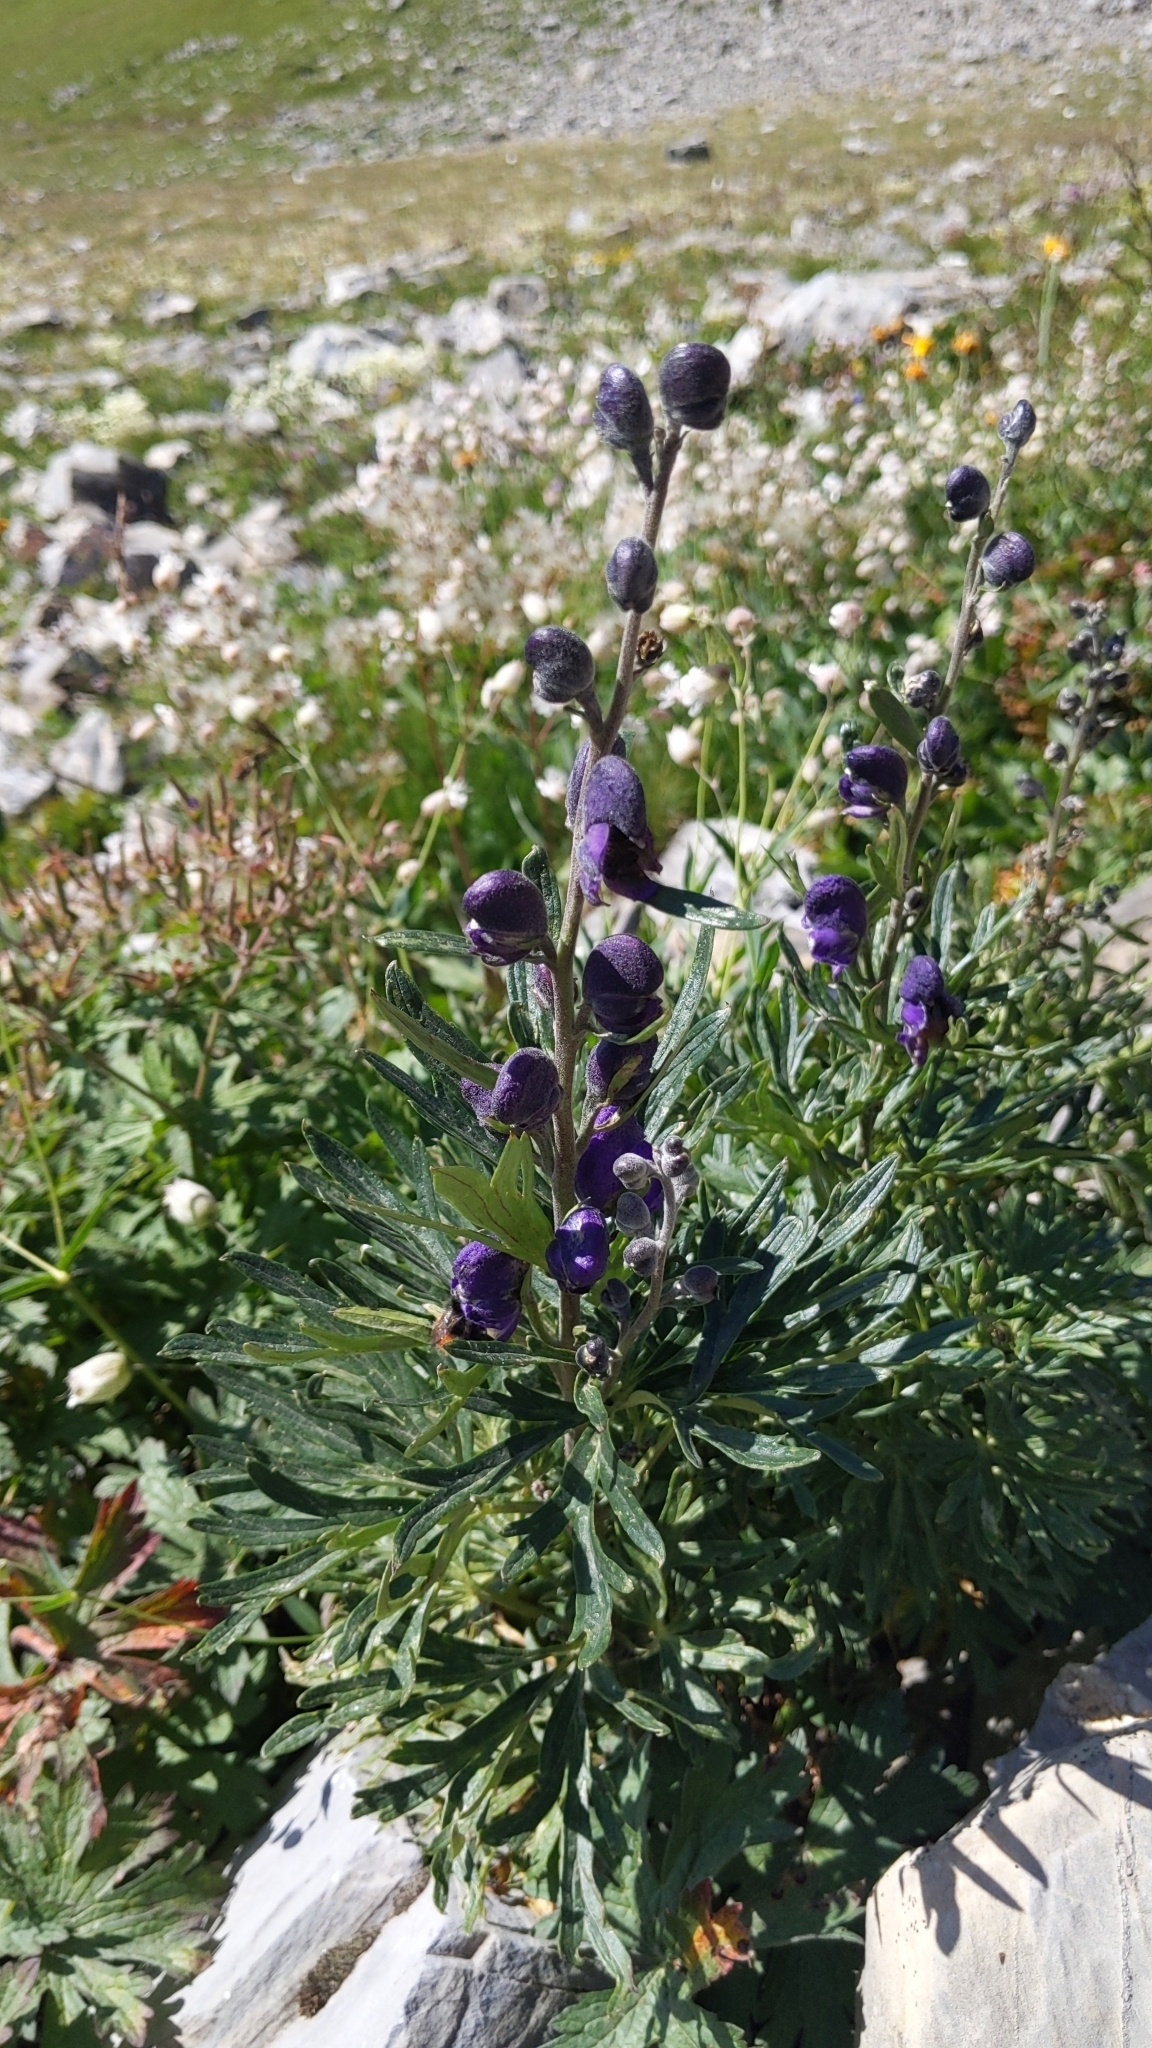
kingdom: Plantae
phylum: Tracheophyta
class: Magnoliopsida
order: Ranunculales
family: Ranunculaceae
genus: Aconitum
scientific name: Aconitum napellus
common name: Garden monkshood
